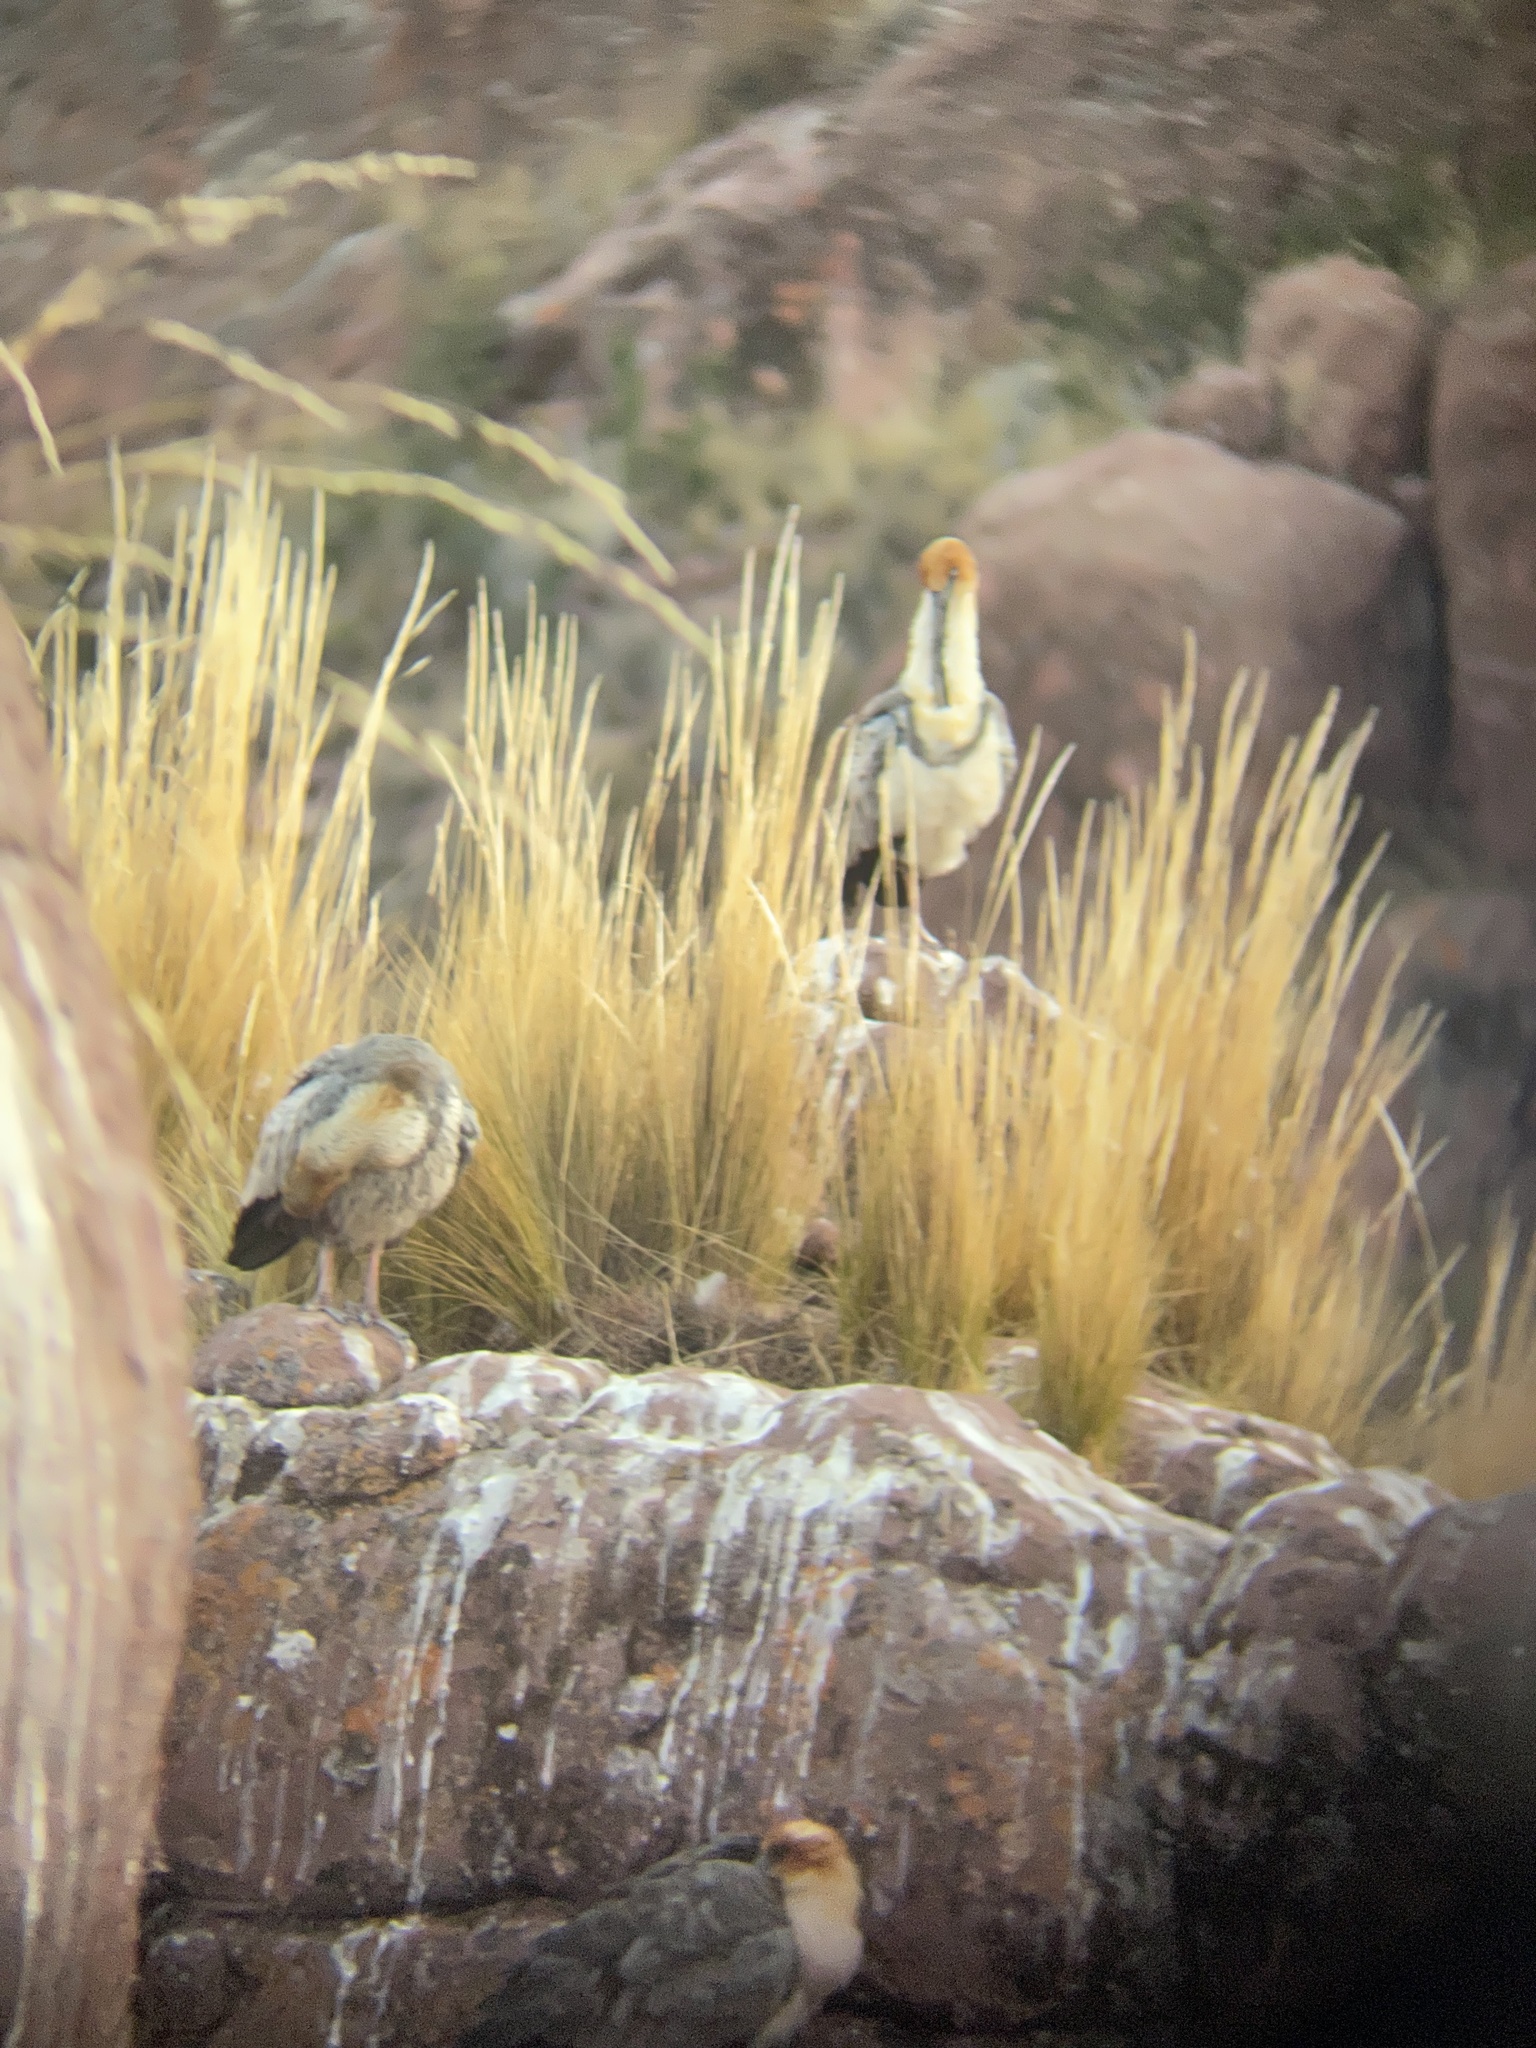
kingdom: Animalia
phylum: Chordata
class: Aves
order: Pelecaniformes
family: Threskiornithidae
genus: Theristicus
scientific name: Theristicus melanopis
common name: Black-faced ibis
